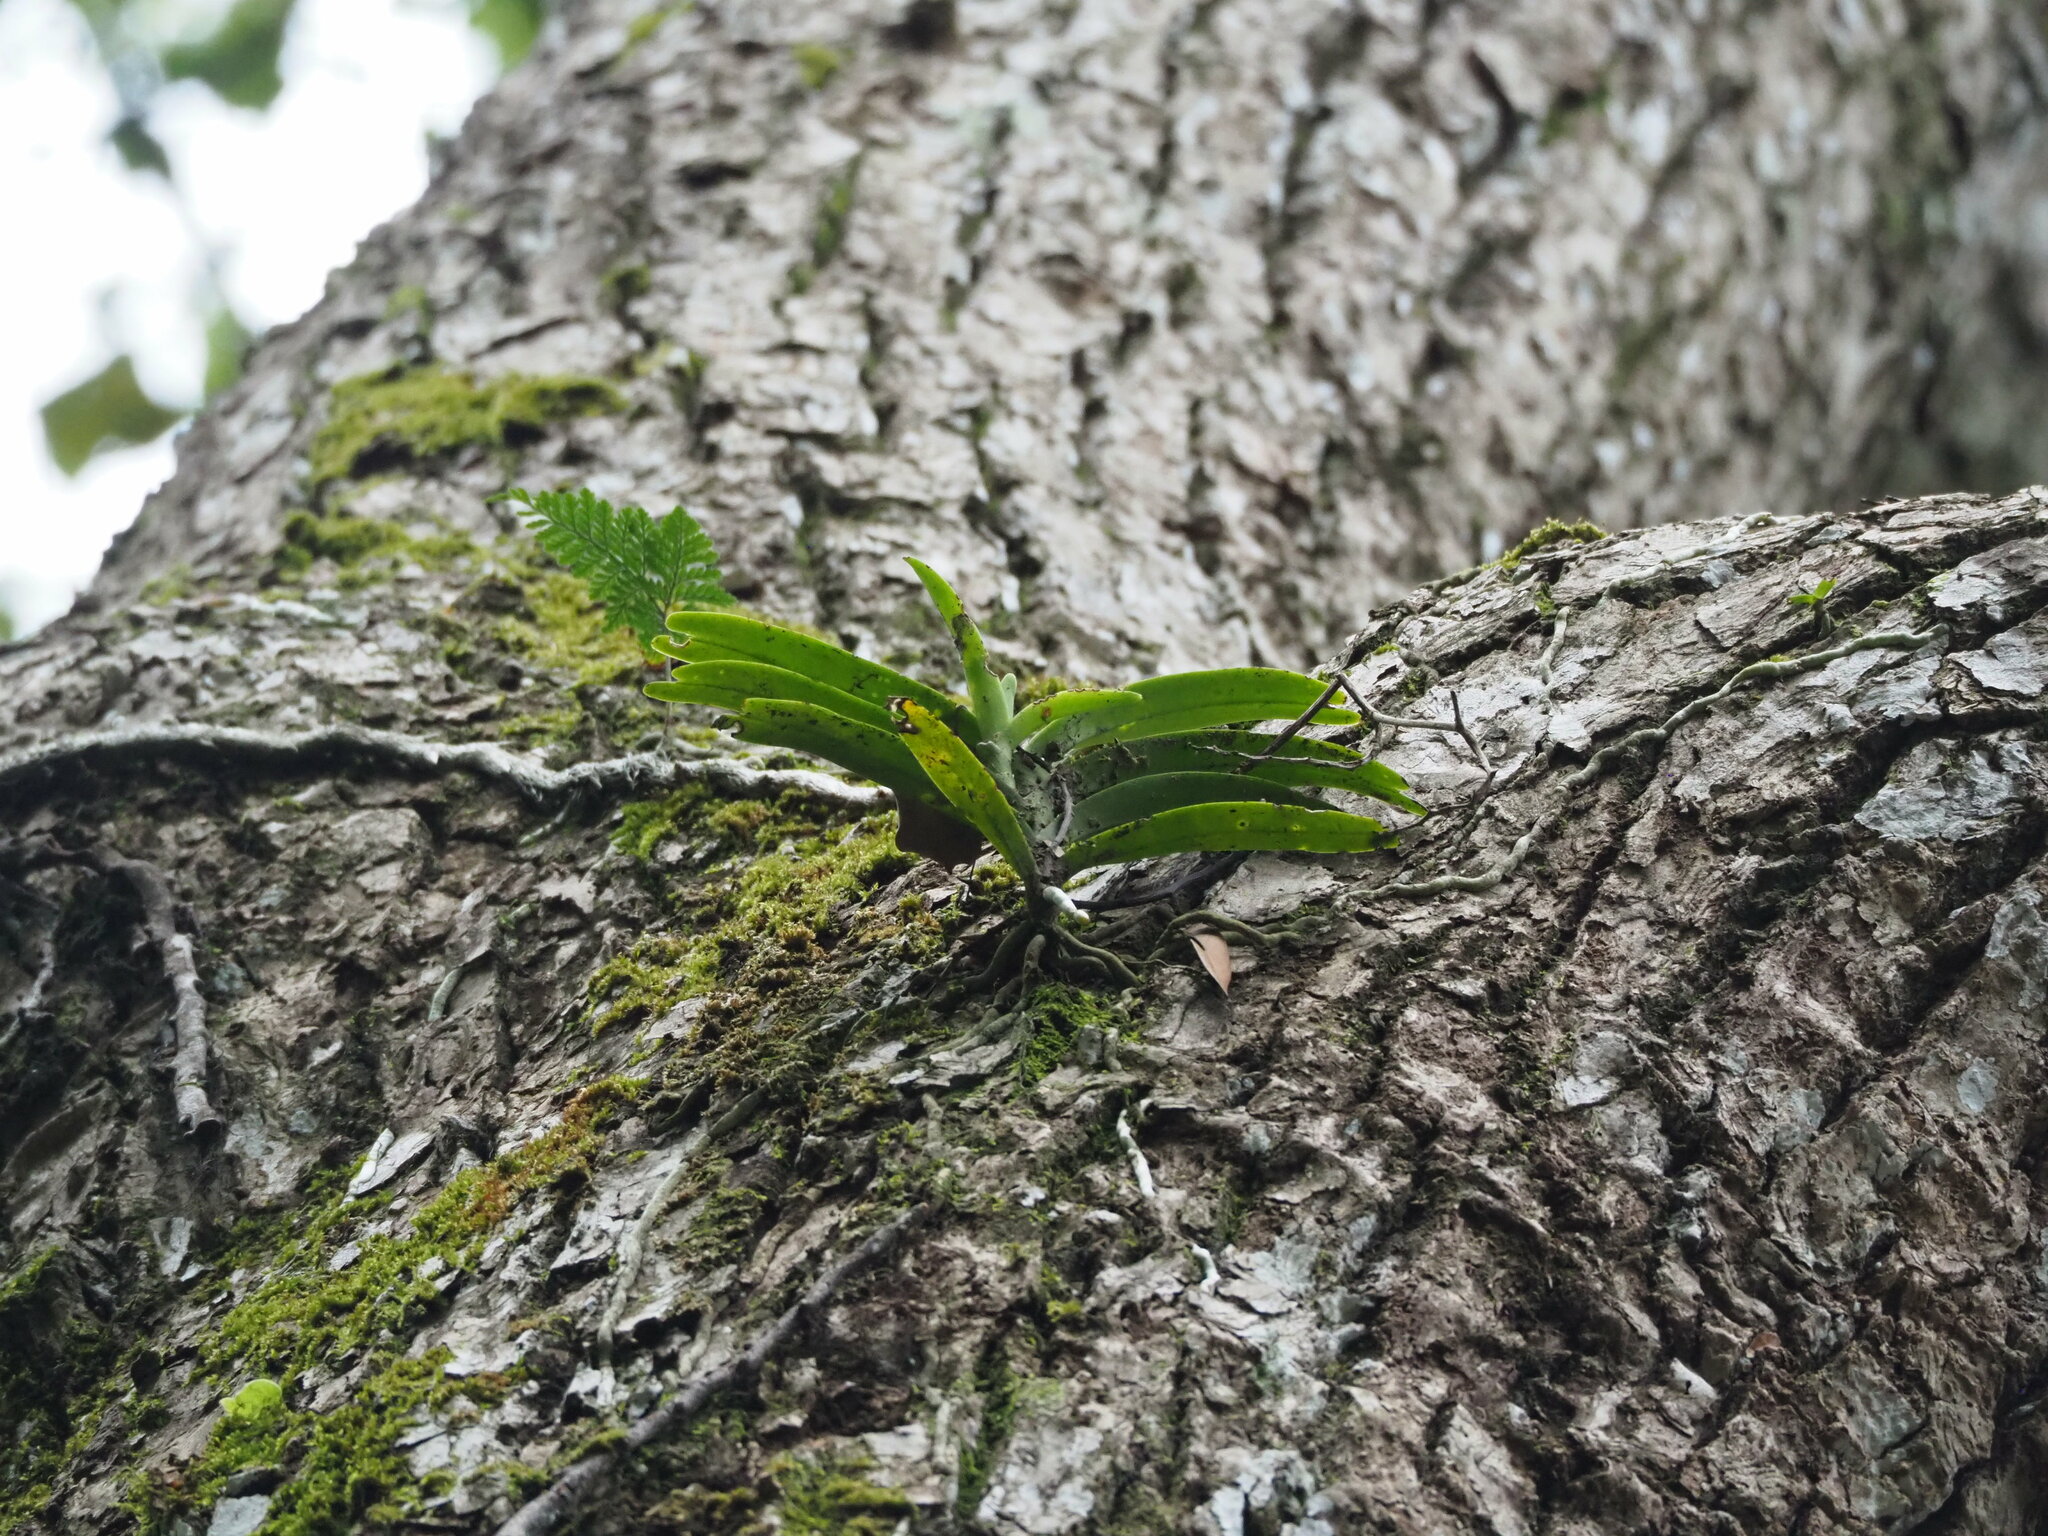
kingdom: Plantae
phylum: Tracheophyta
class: Liliopsida
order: Asparagales
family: Orchidaceae
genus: Cleisostoma
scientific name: Cleisostoma paniculatum
